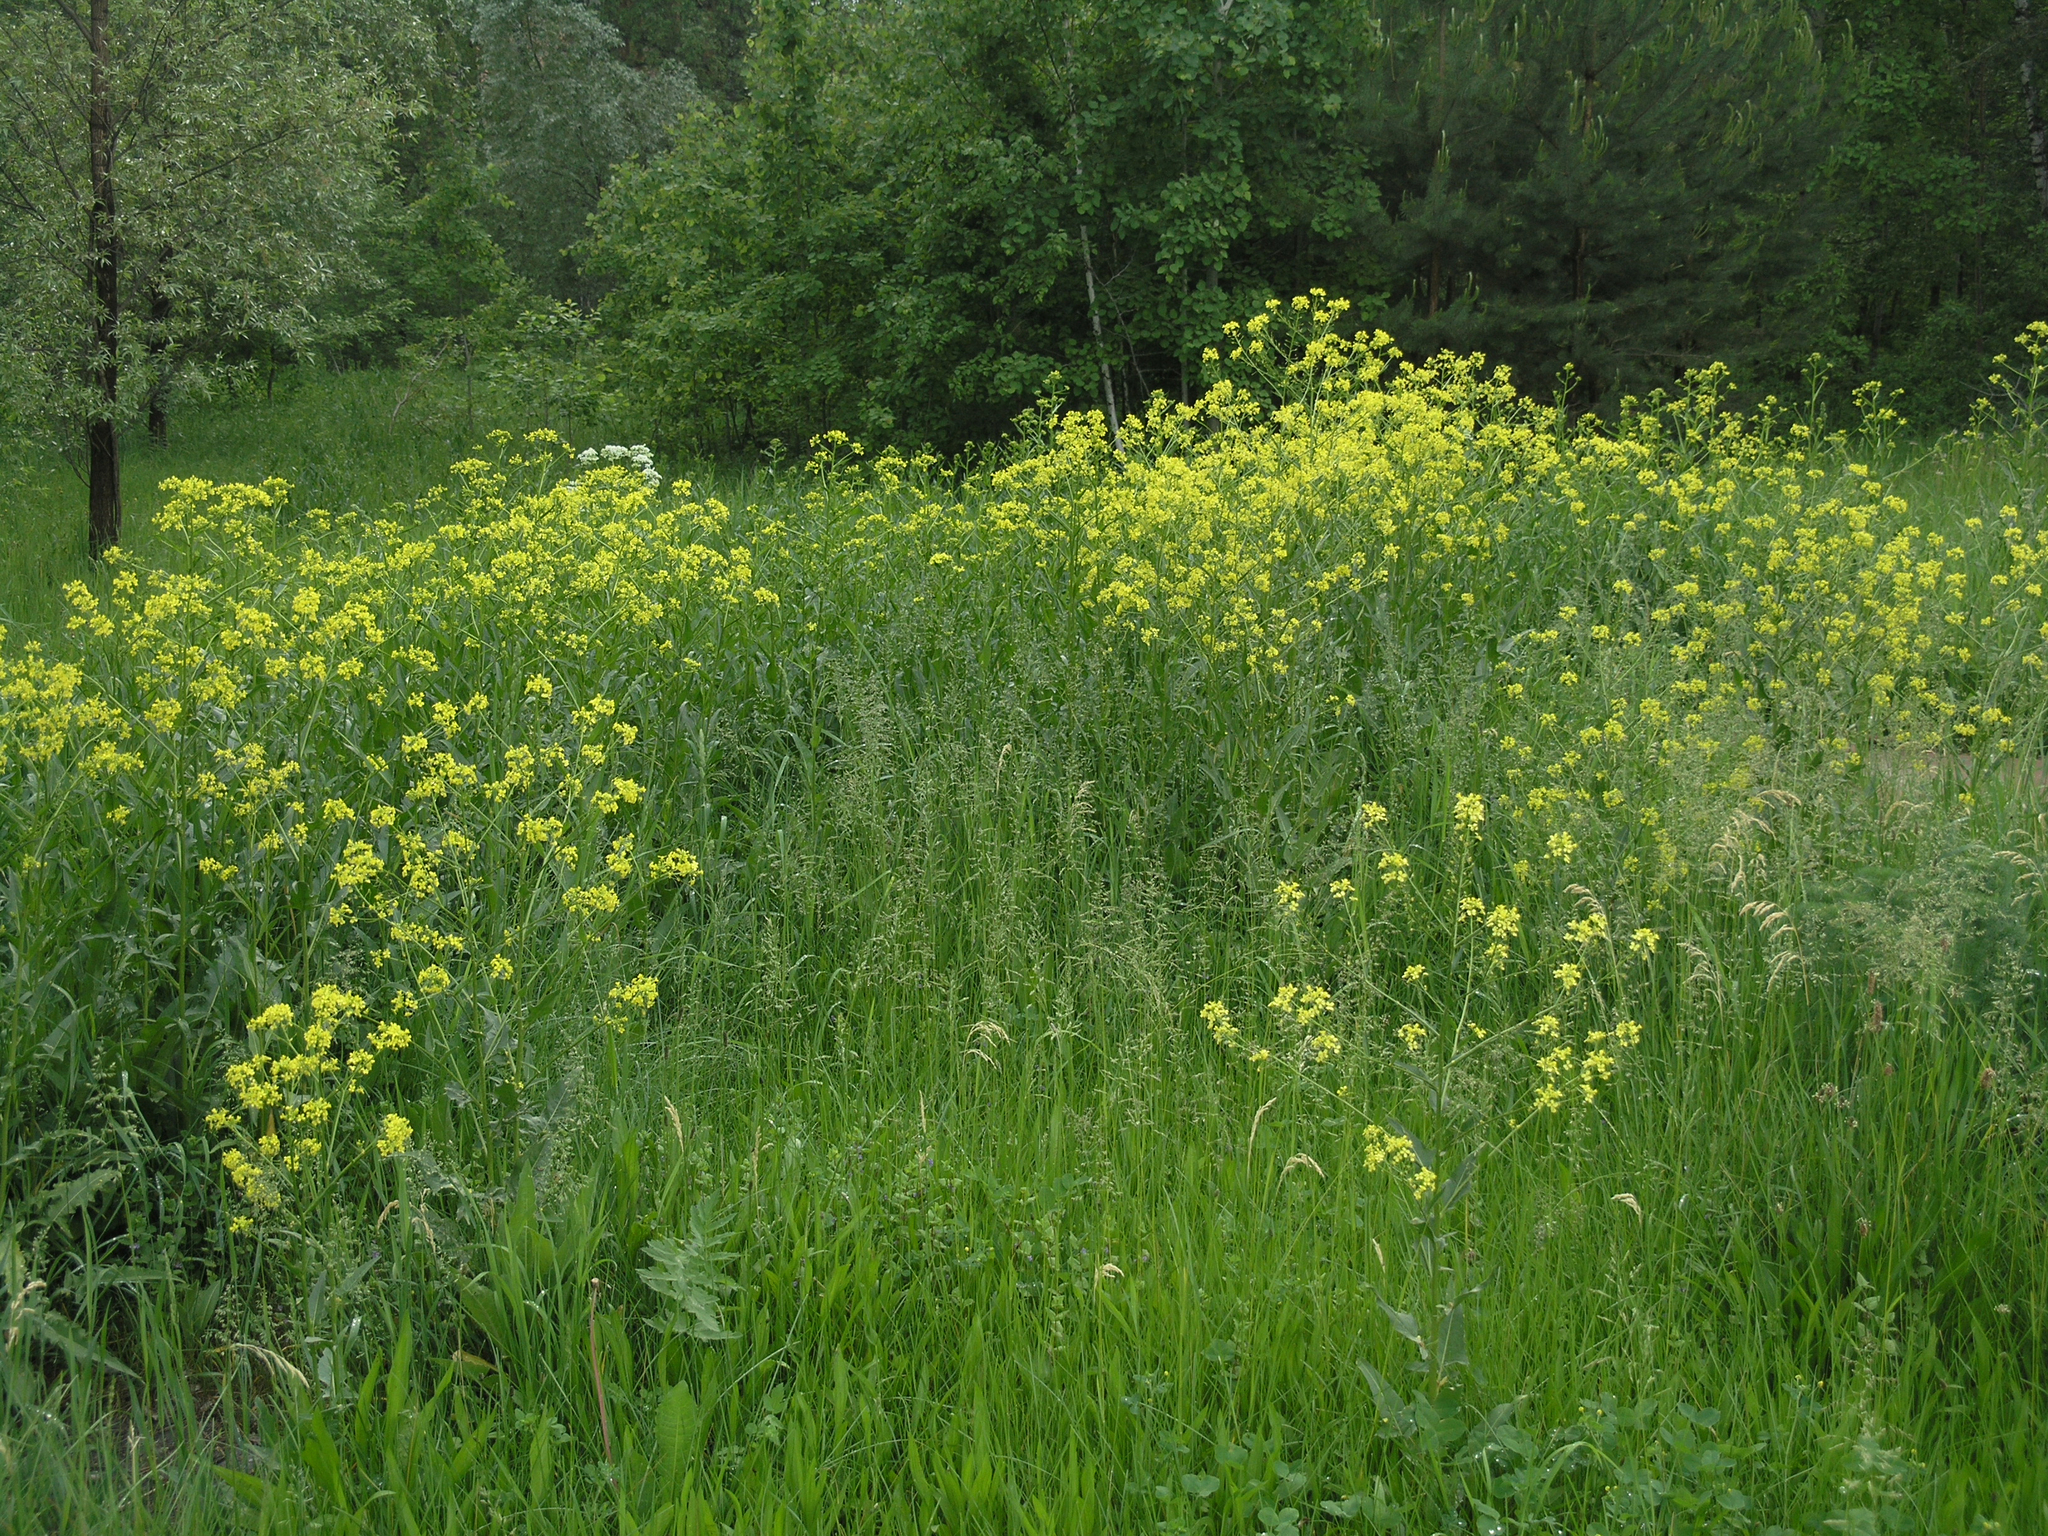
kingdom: Plantae
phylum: Tracheophyta
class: Magnoliopsida
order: Brassicales
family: Brassicaceae
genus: Bunias
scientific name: Bunias orientalis
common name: Warty-cabbage
